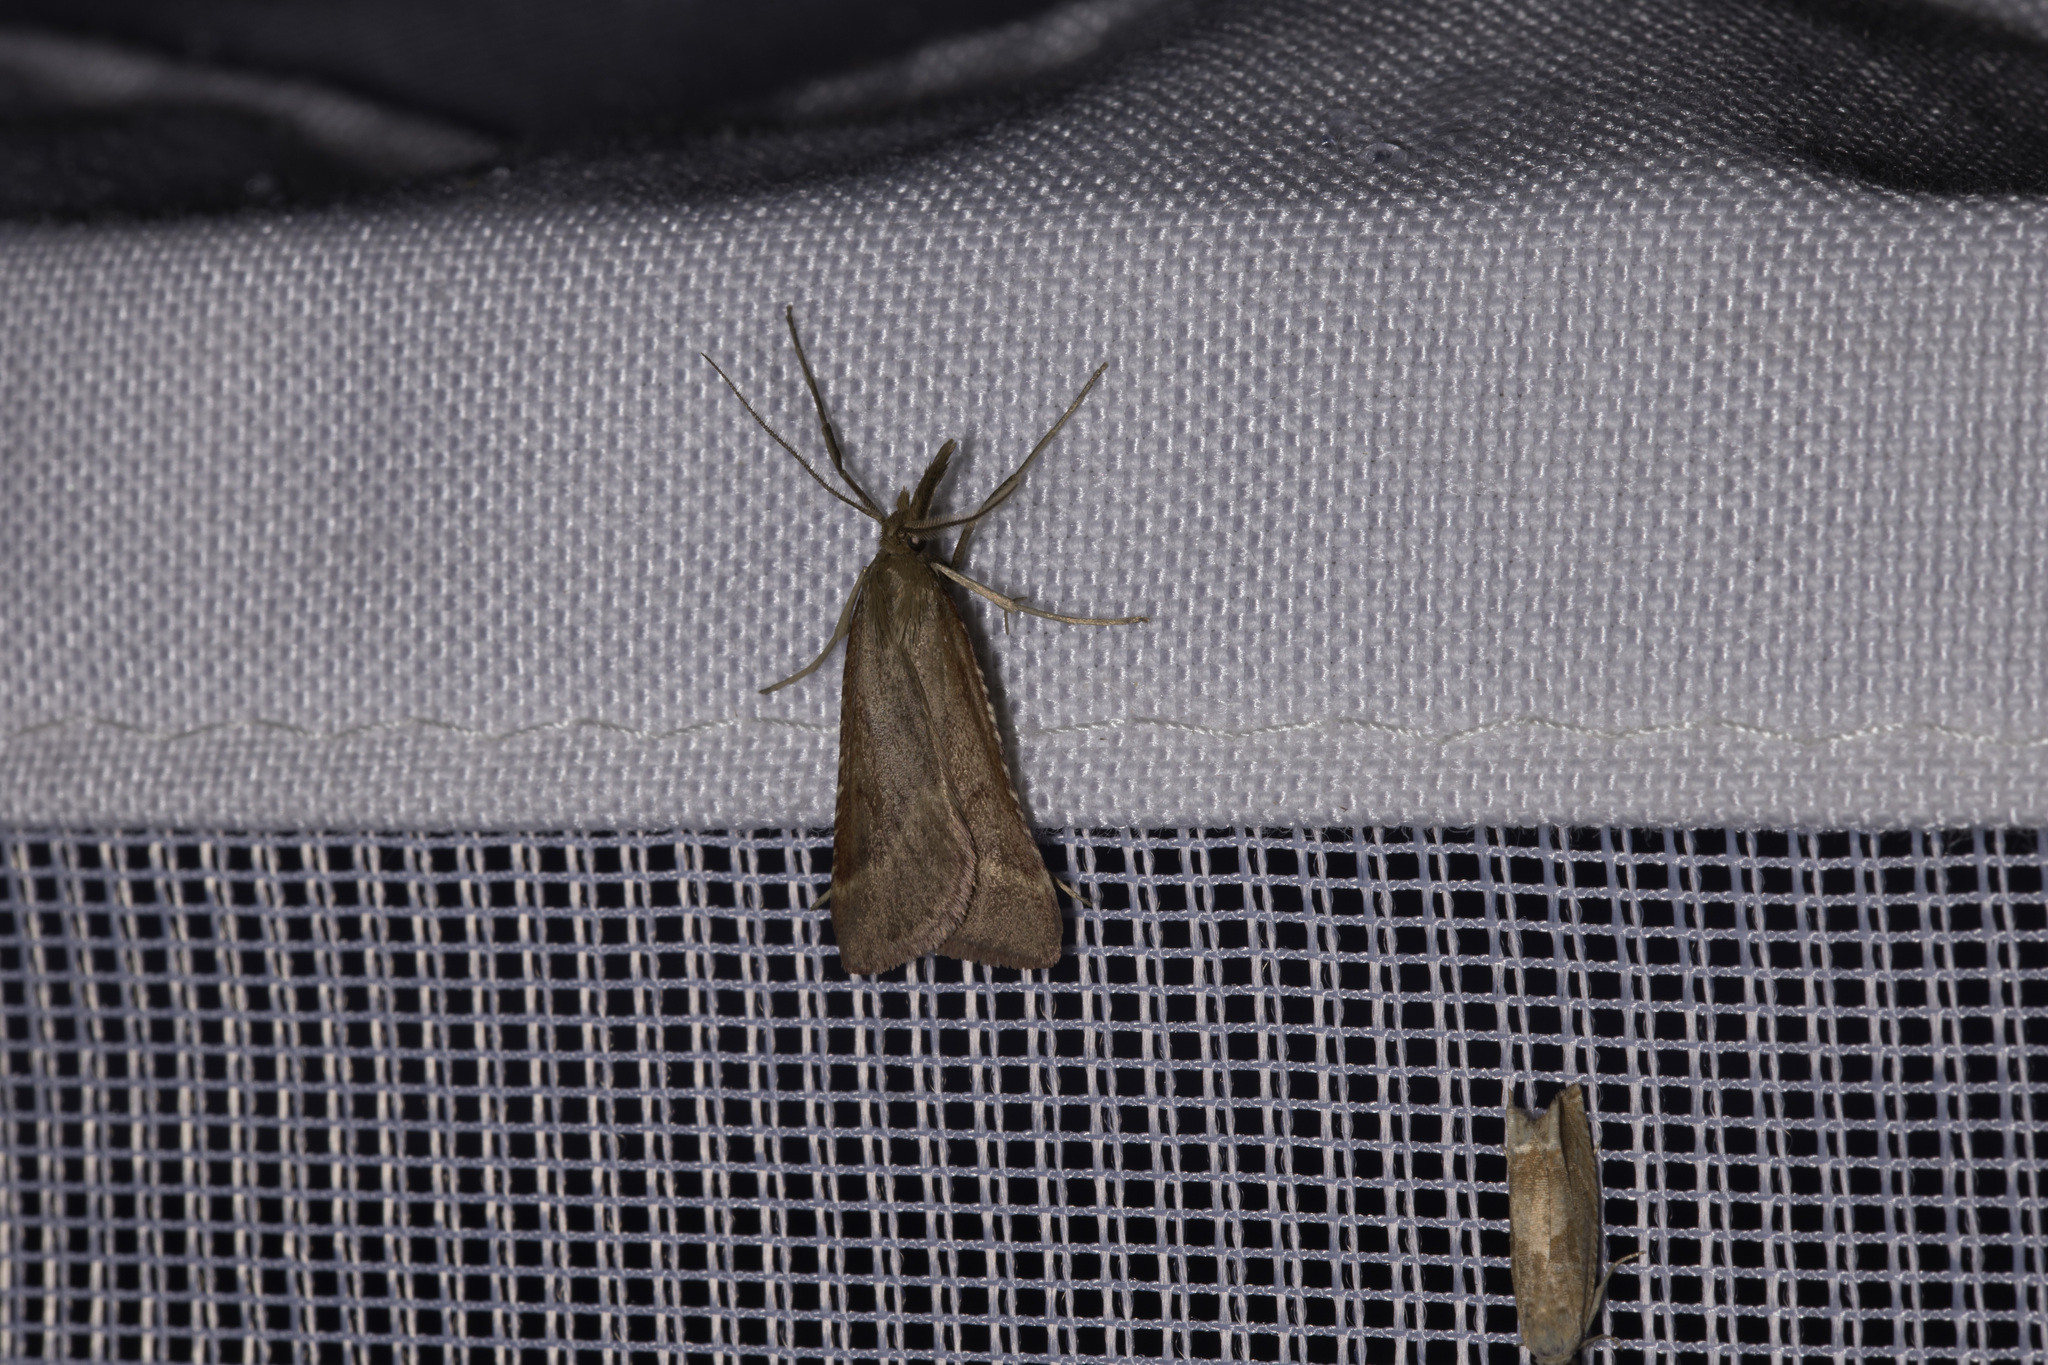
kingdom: Animalia
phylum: Arthropoda
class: Insecta
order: Lepidoptera
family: Pyralidae
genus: Synaphe
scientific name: Synaphe punctalis
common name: Long-legged tabby
